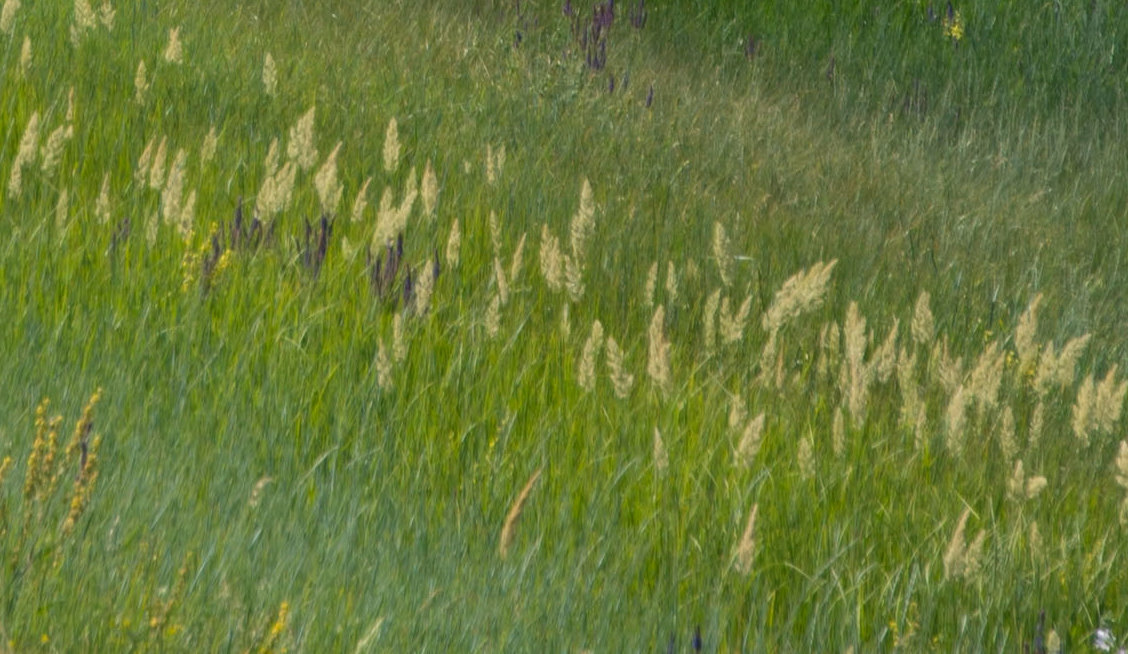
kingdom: Plantae
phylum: Tracheophyta
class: Liliopsida
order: Poales
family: Poaceae
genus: Calamagrostis
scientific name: Calamagrostis epigejos
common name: Wood small-reed
